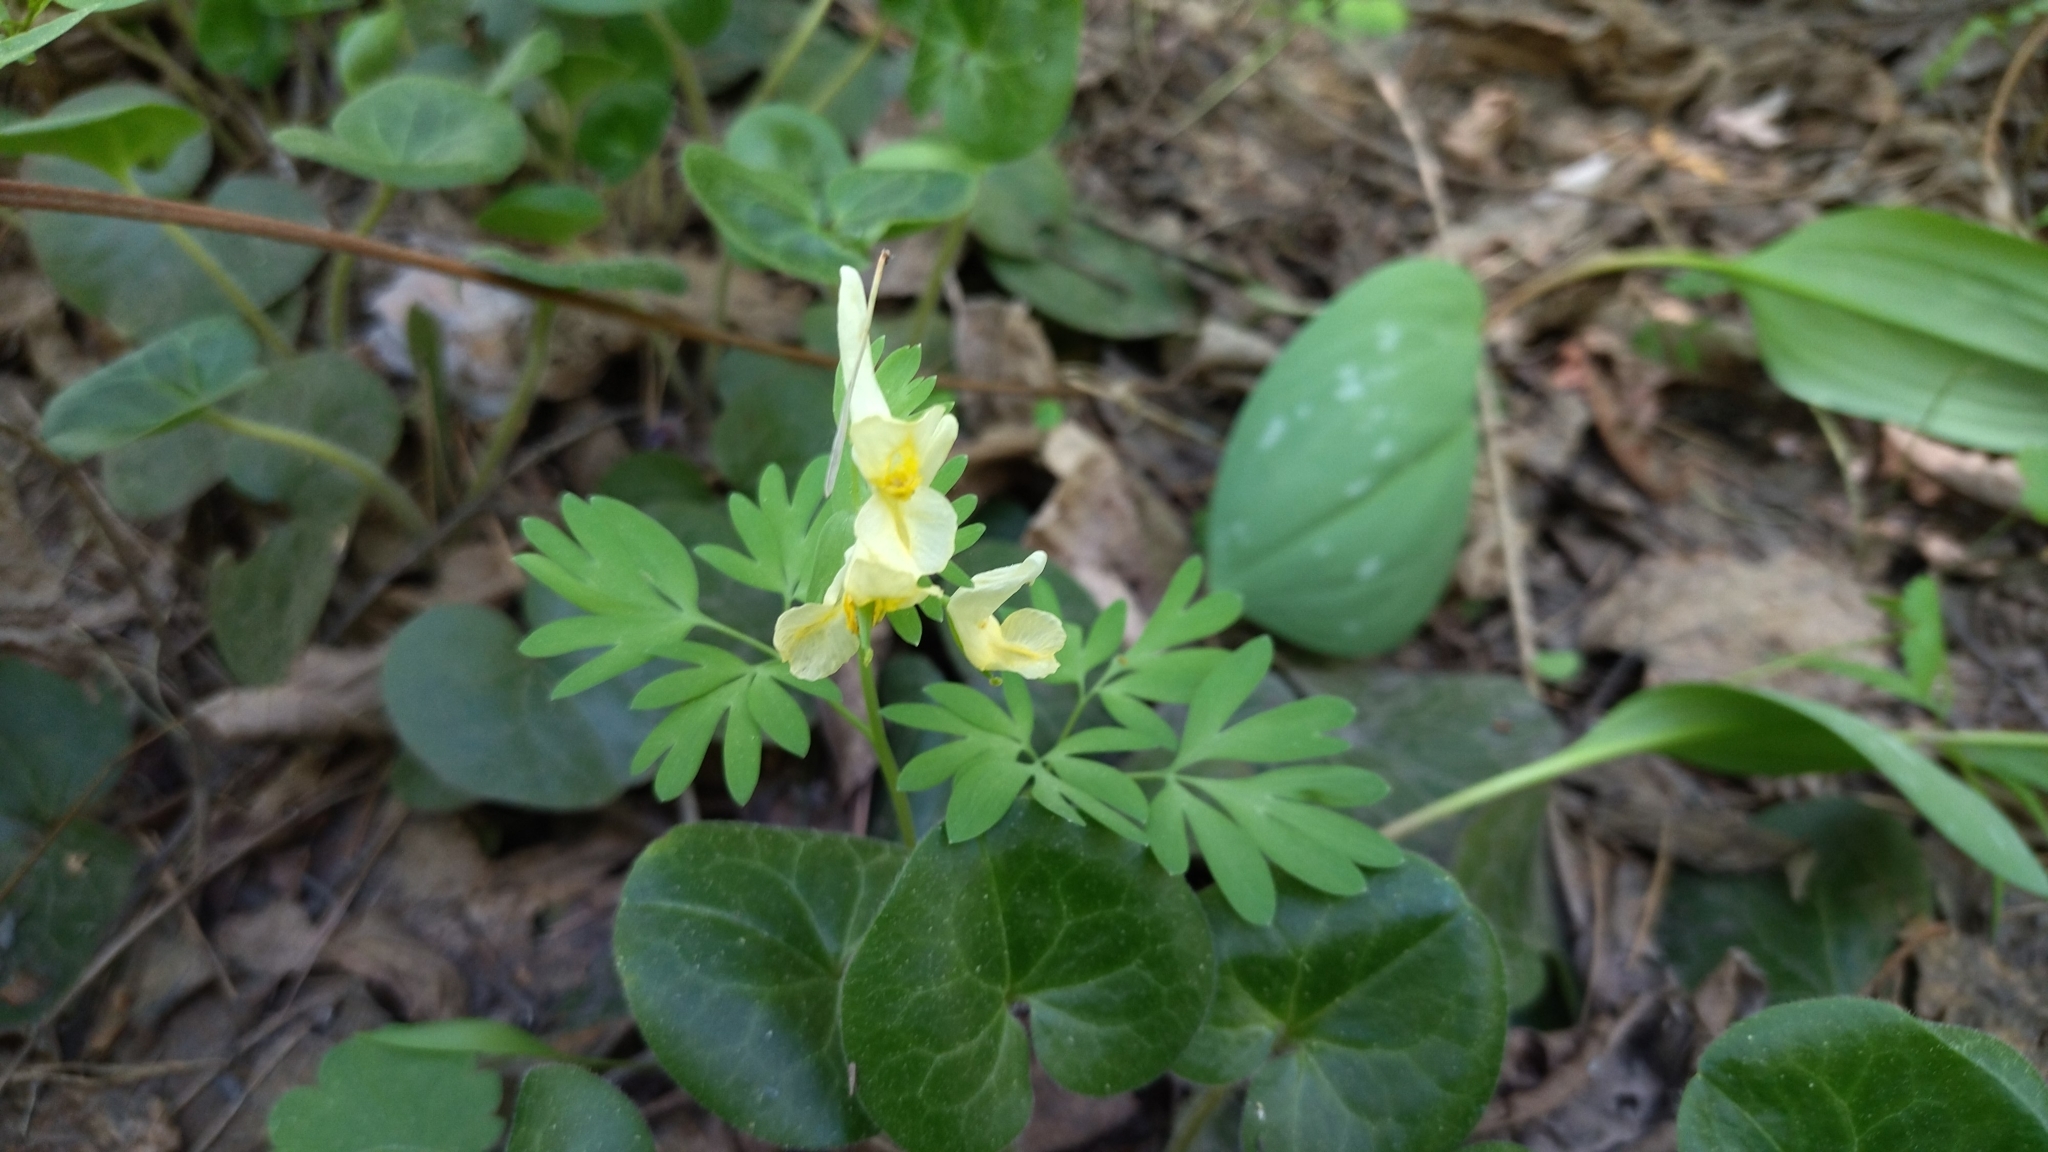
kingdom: Plantae
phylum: Tracheophyta
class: Magnoliopsida
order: Ranunculales
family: Papaveraceae
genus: Corydalis
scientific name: Corydalis bracteata
